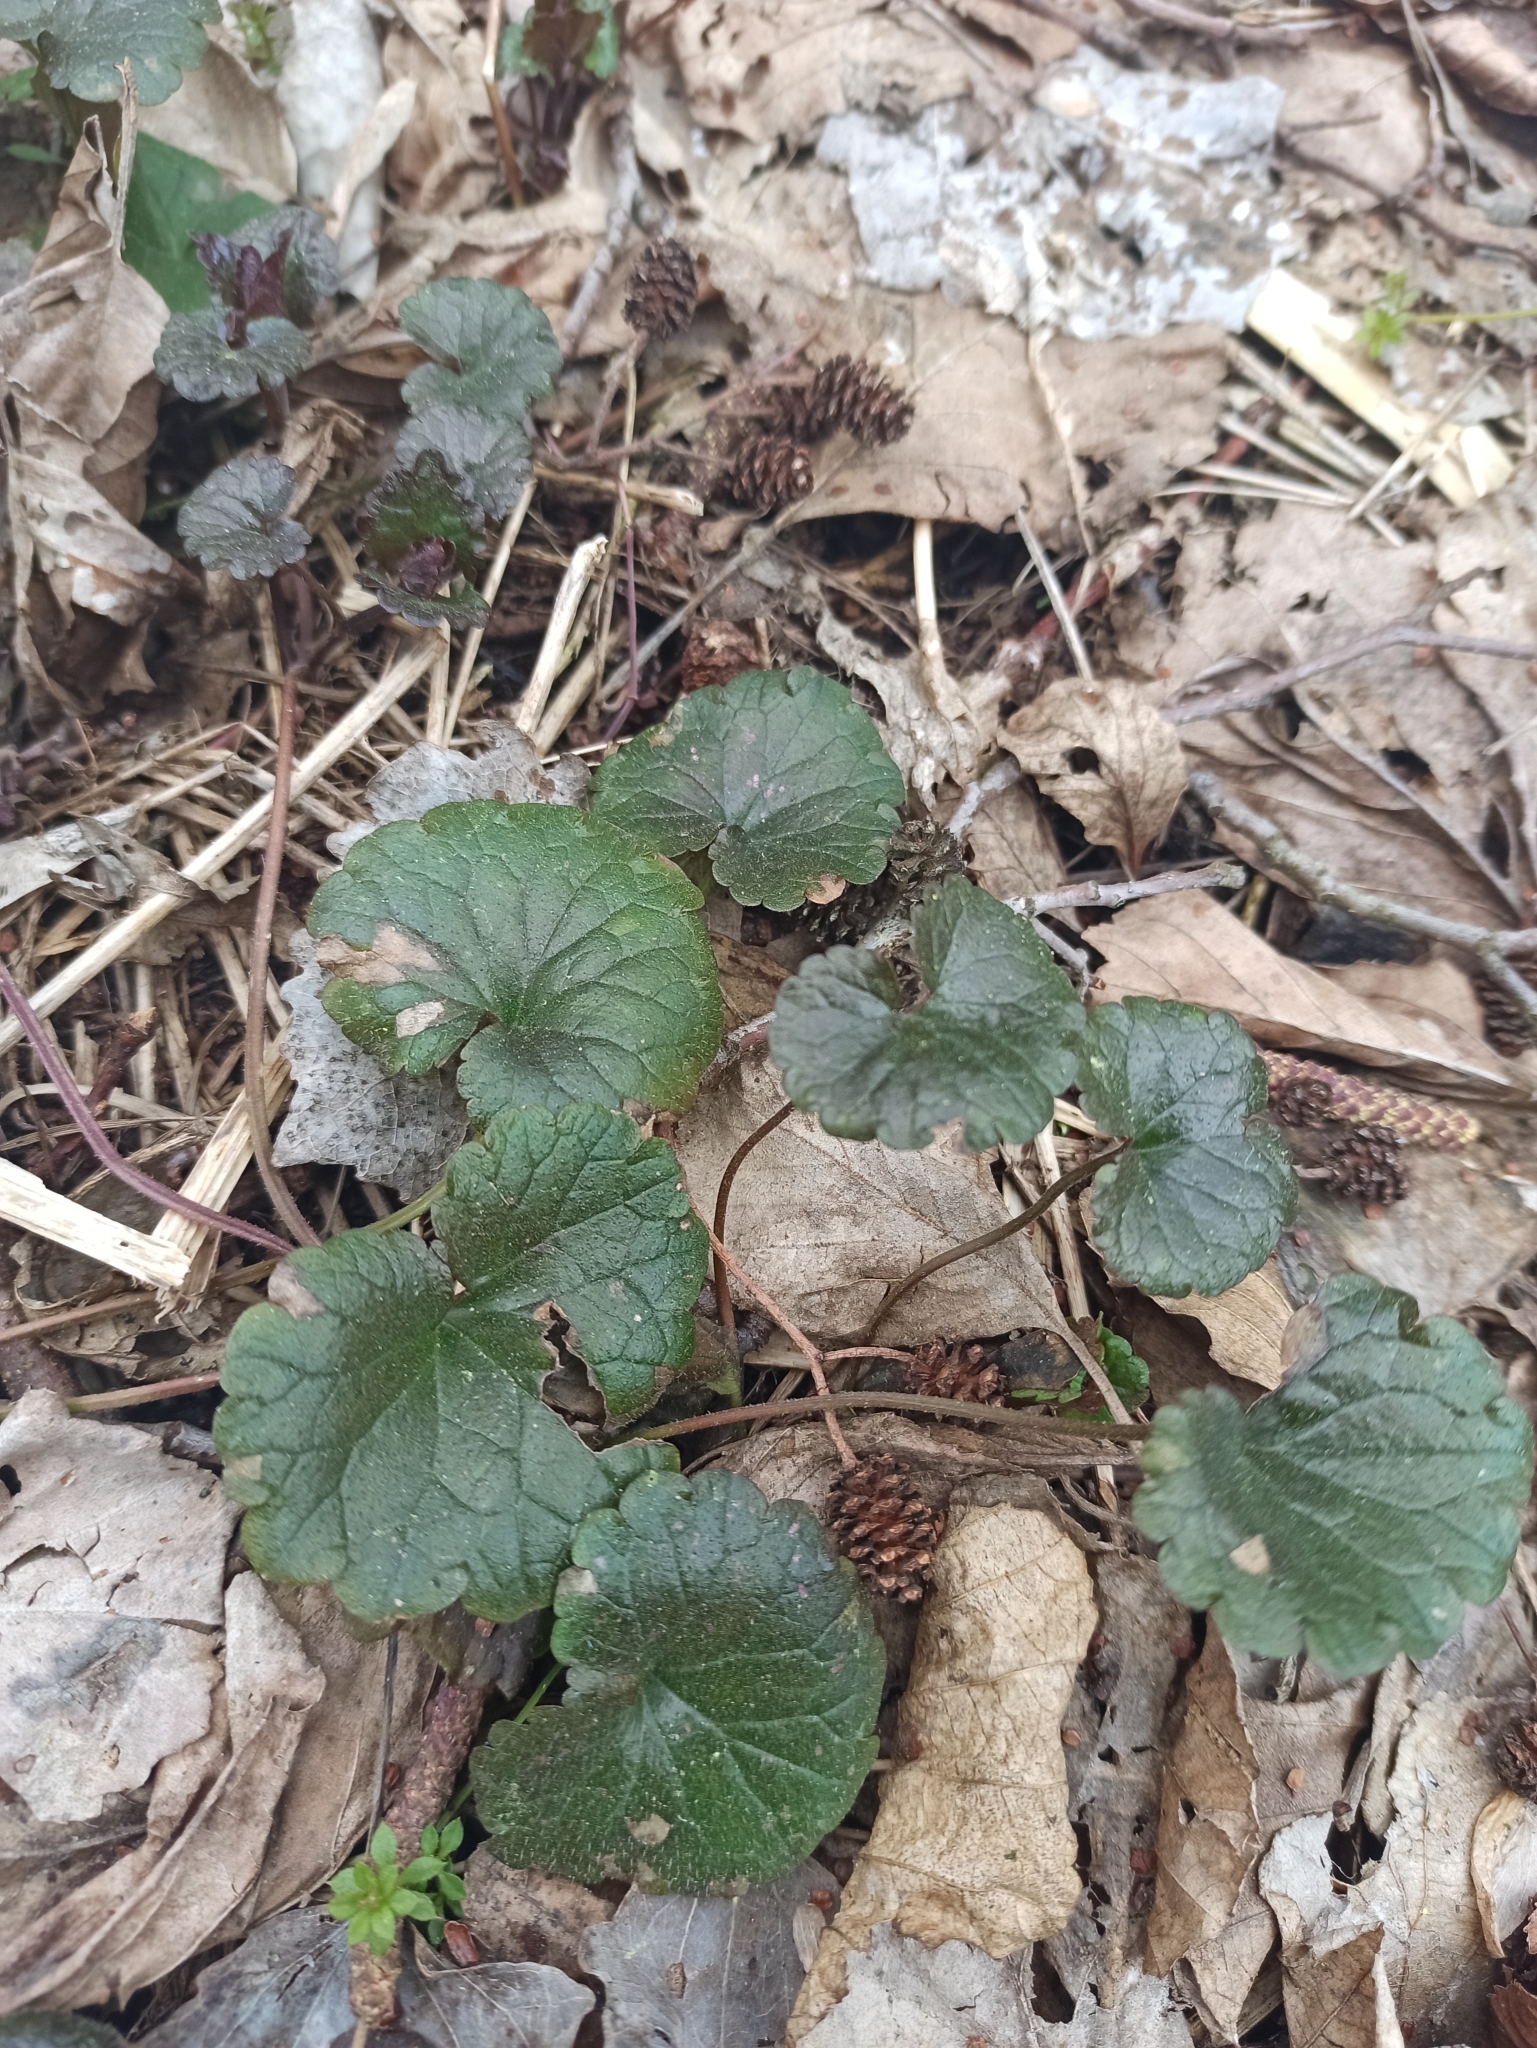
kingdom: Plantae
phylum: Tracheophyta
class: Magnoliopsida
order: Lamiales
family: Lamiaceae
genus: Glechoma
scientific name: Glechoma hederacea
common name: Ground ivy
